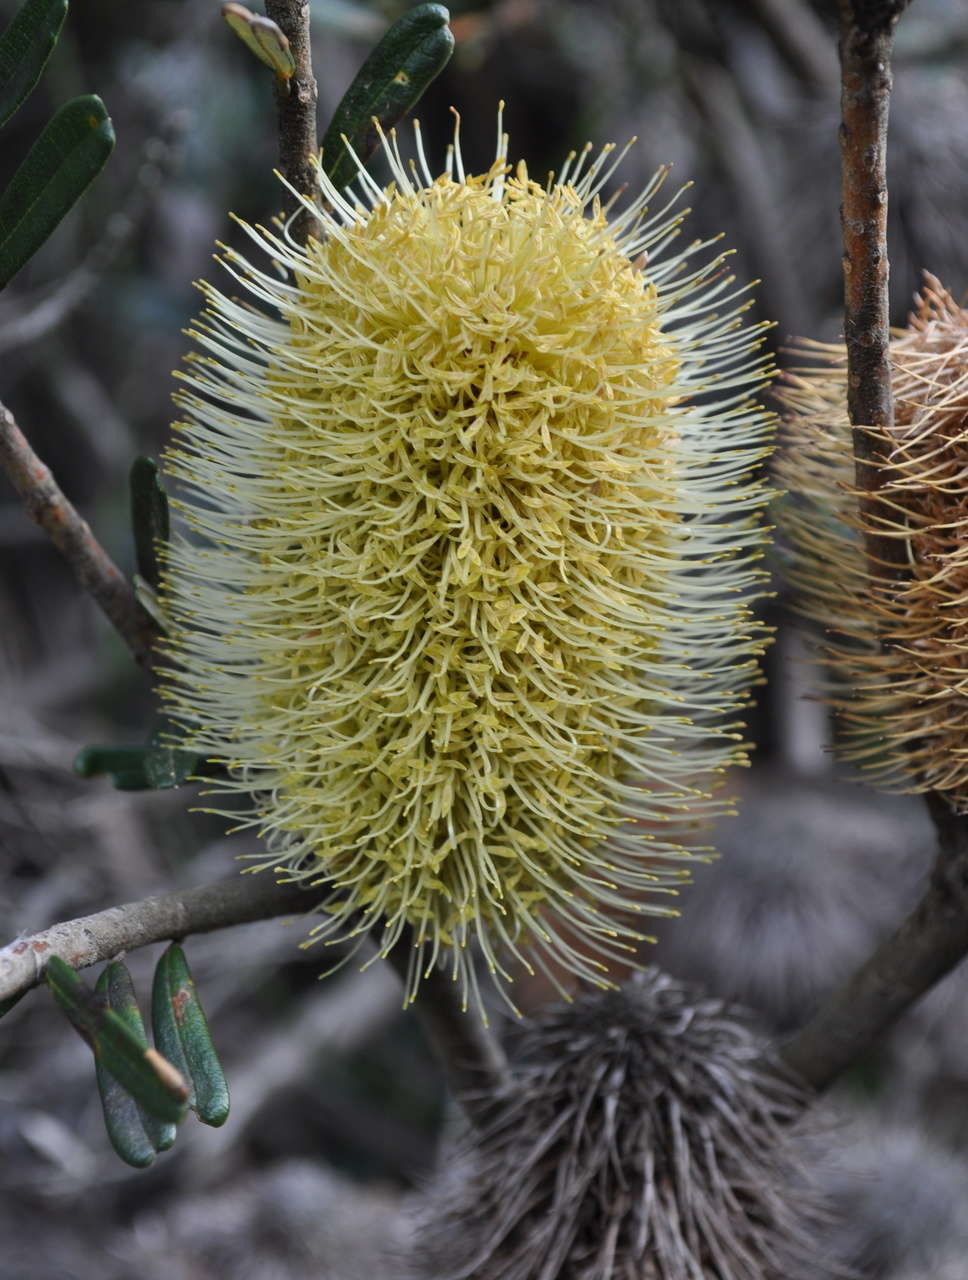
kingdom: Plantae
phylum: Tracheophyta
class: Magnoliopsida
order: Proteales
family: Proteaceae
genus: Banksia
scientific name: Banksia marginata
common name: Silver banksia
